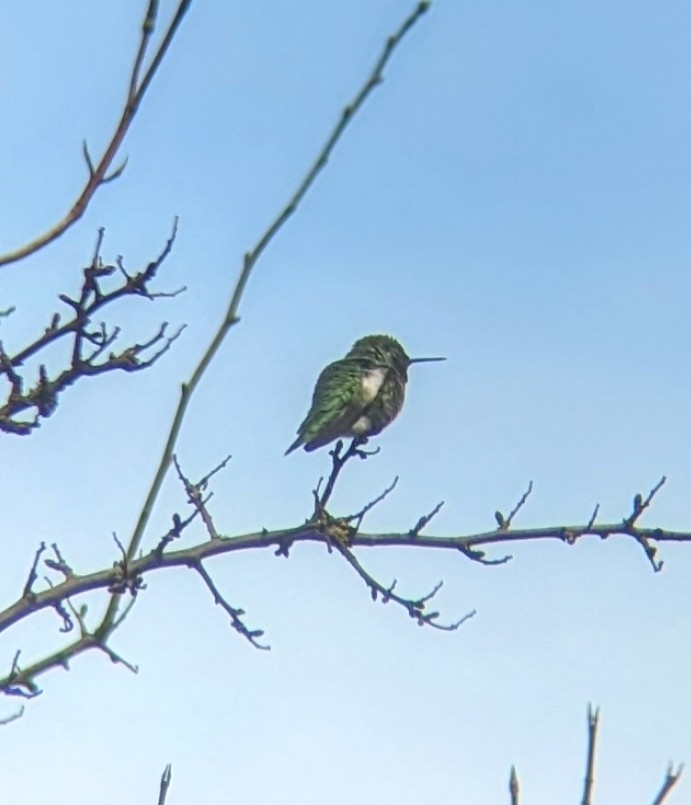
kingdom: Animalia
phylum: Chordata
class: Aves
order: Apodiformes
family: Trochilidae
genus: Calypte
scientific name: Calypte anna
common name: Anna's hummingbird
